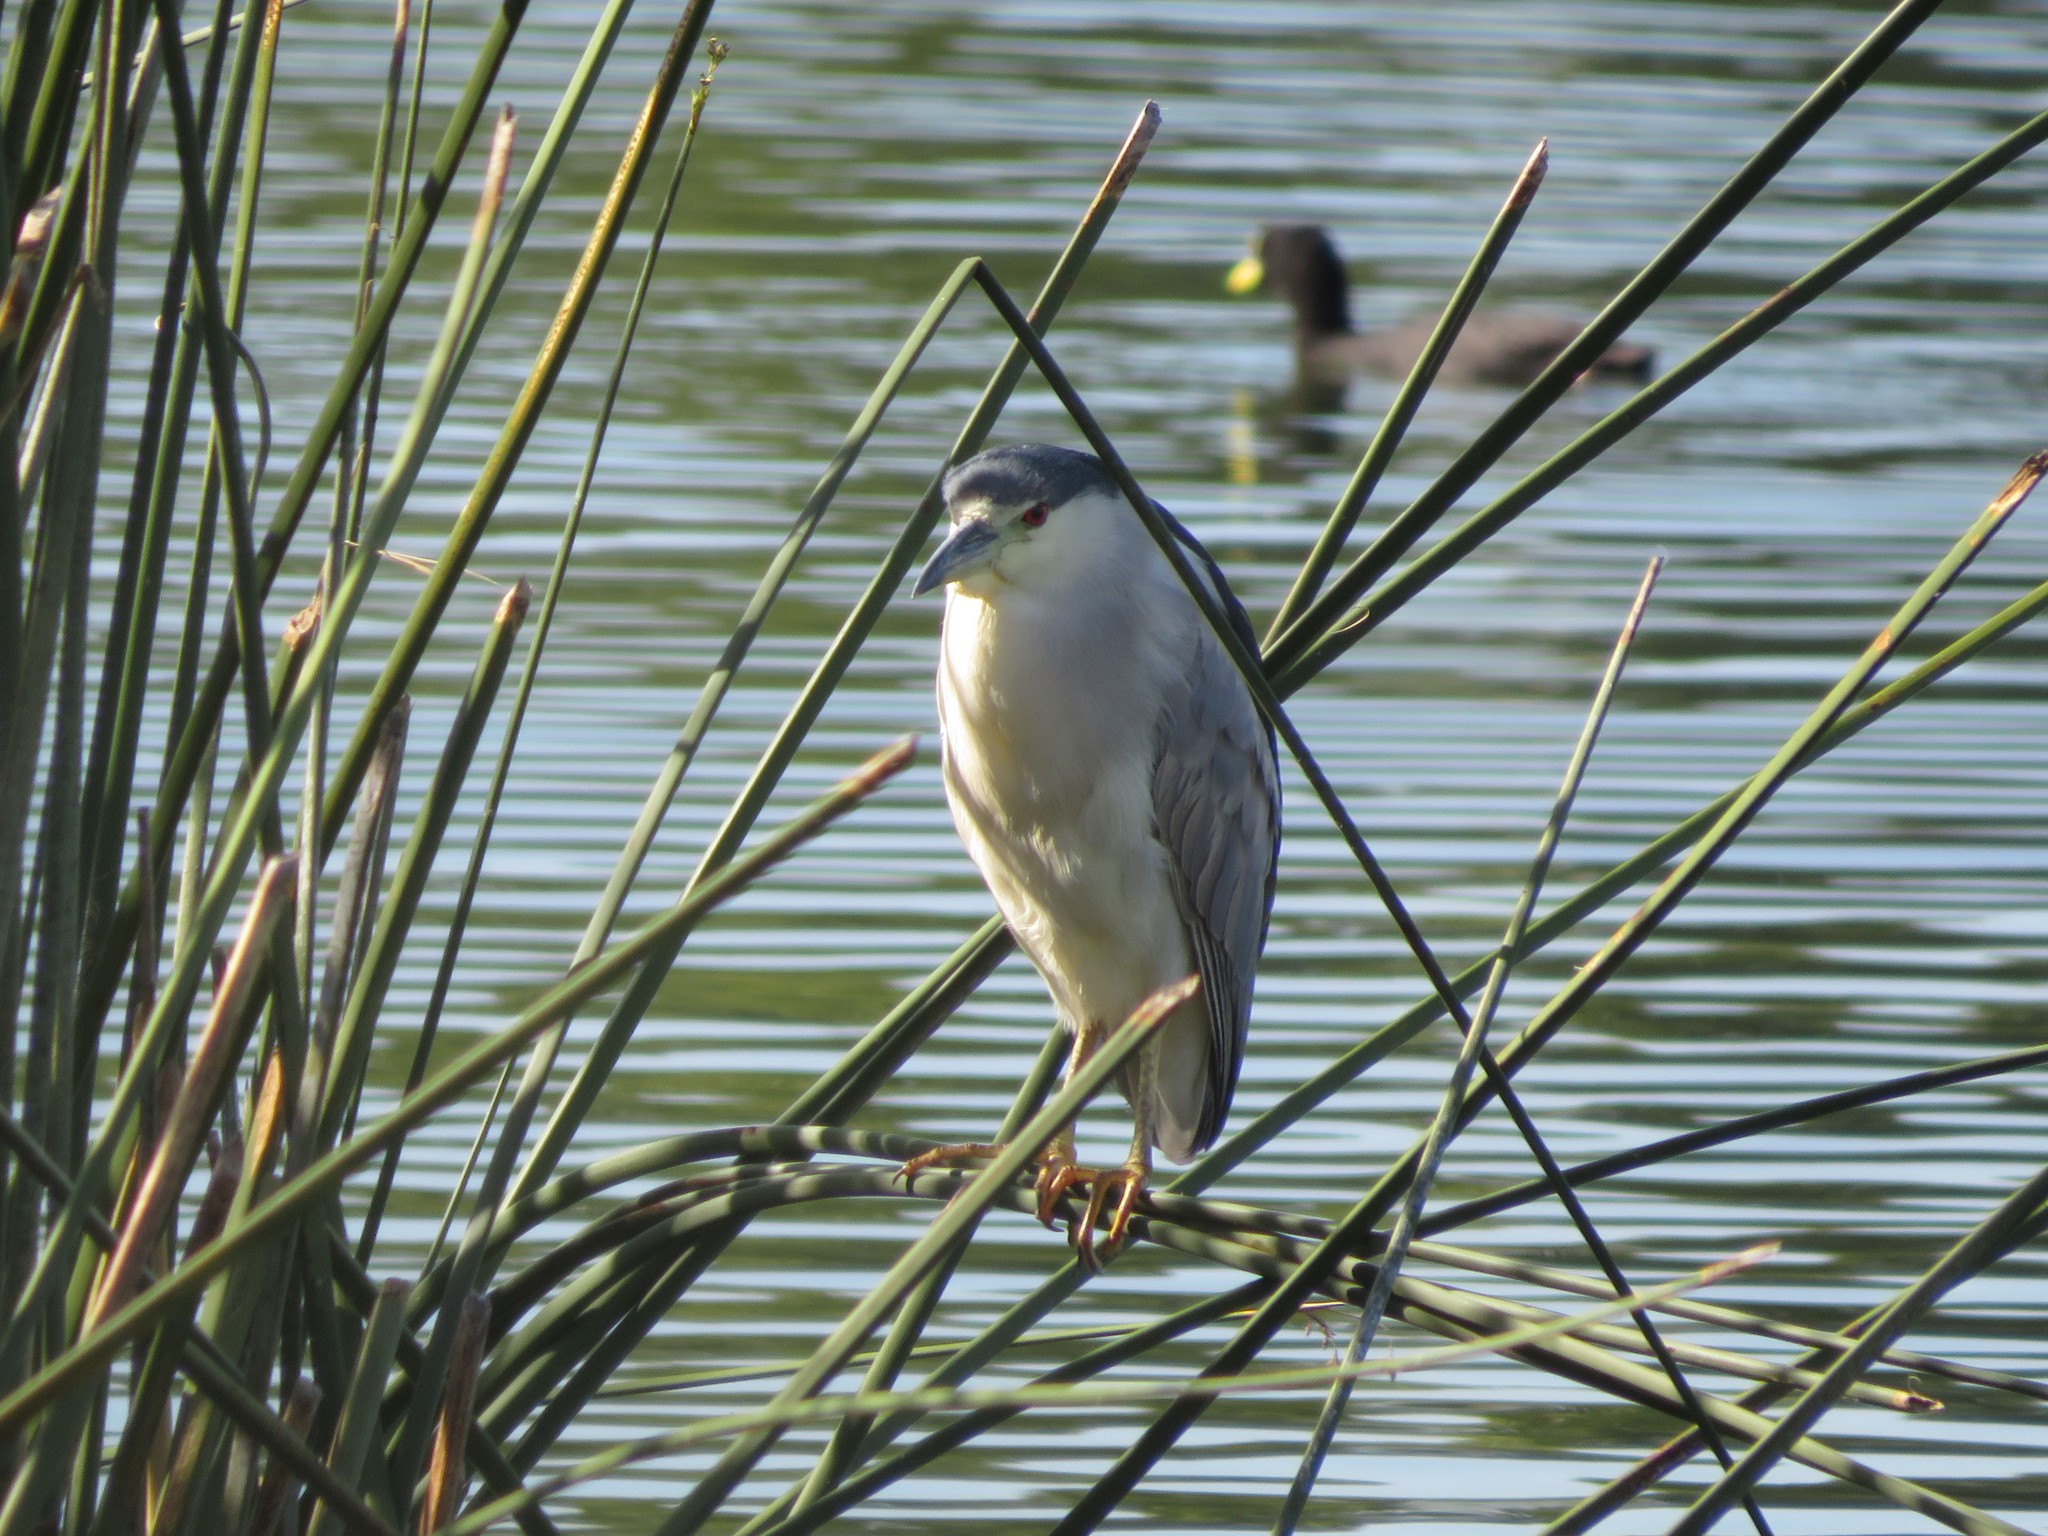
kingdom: Animalia
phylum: Chordata
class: Aves
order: Pelecaniformes
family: Ardeidae
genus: Nycticorax
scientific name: Nycticorax nycticorax
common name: Black-crowned night heron
